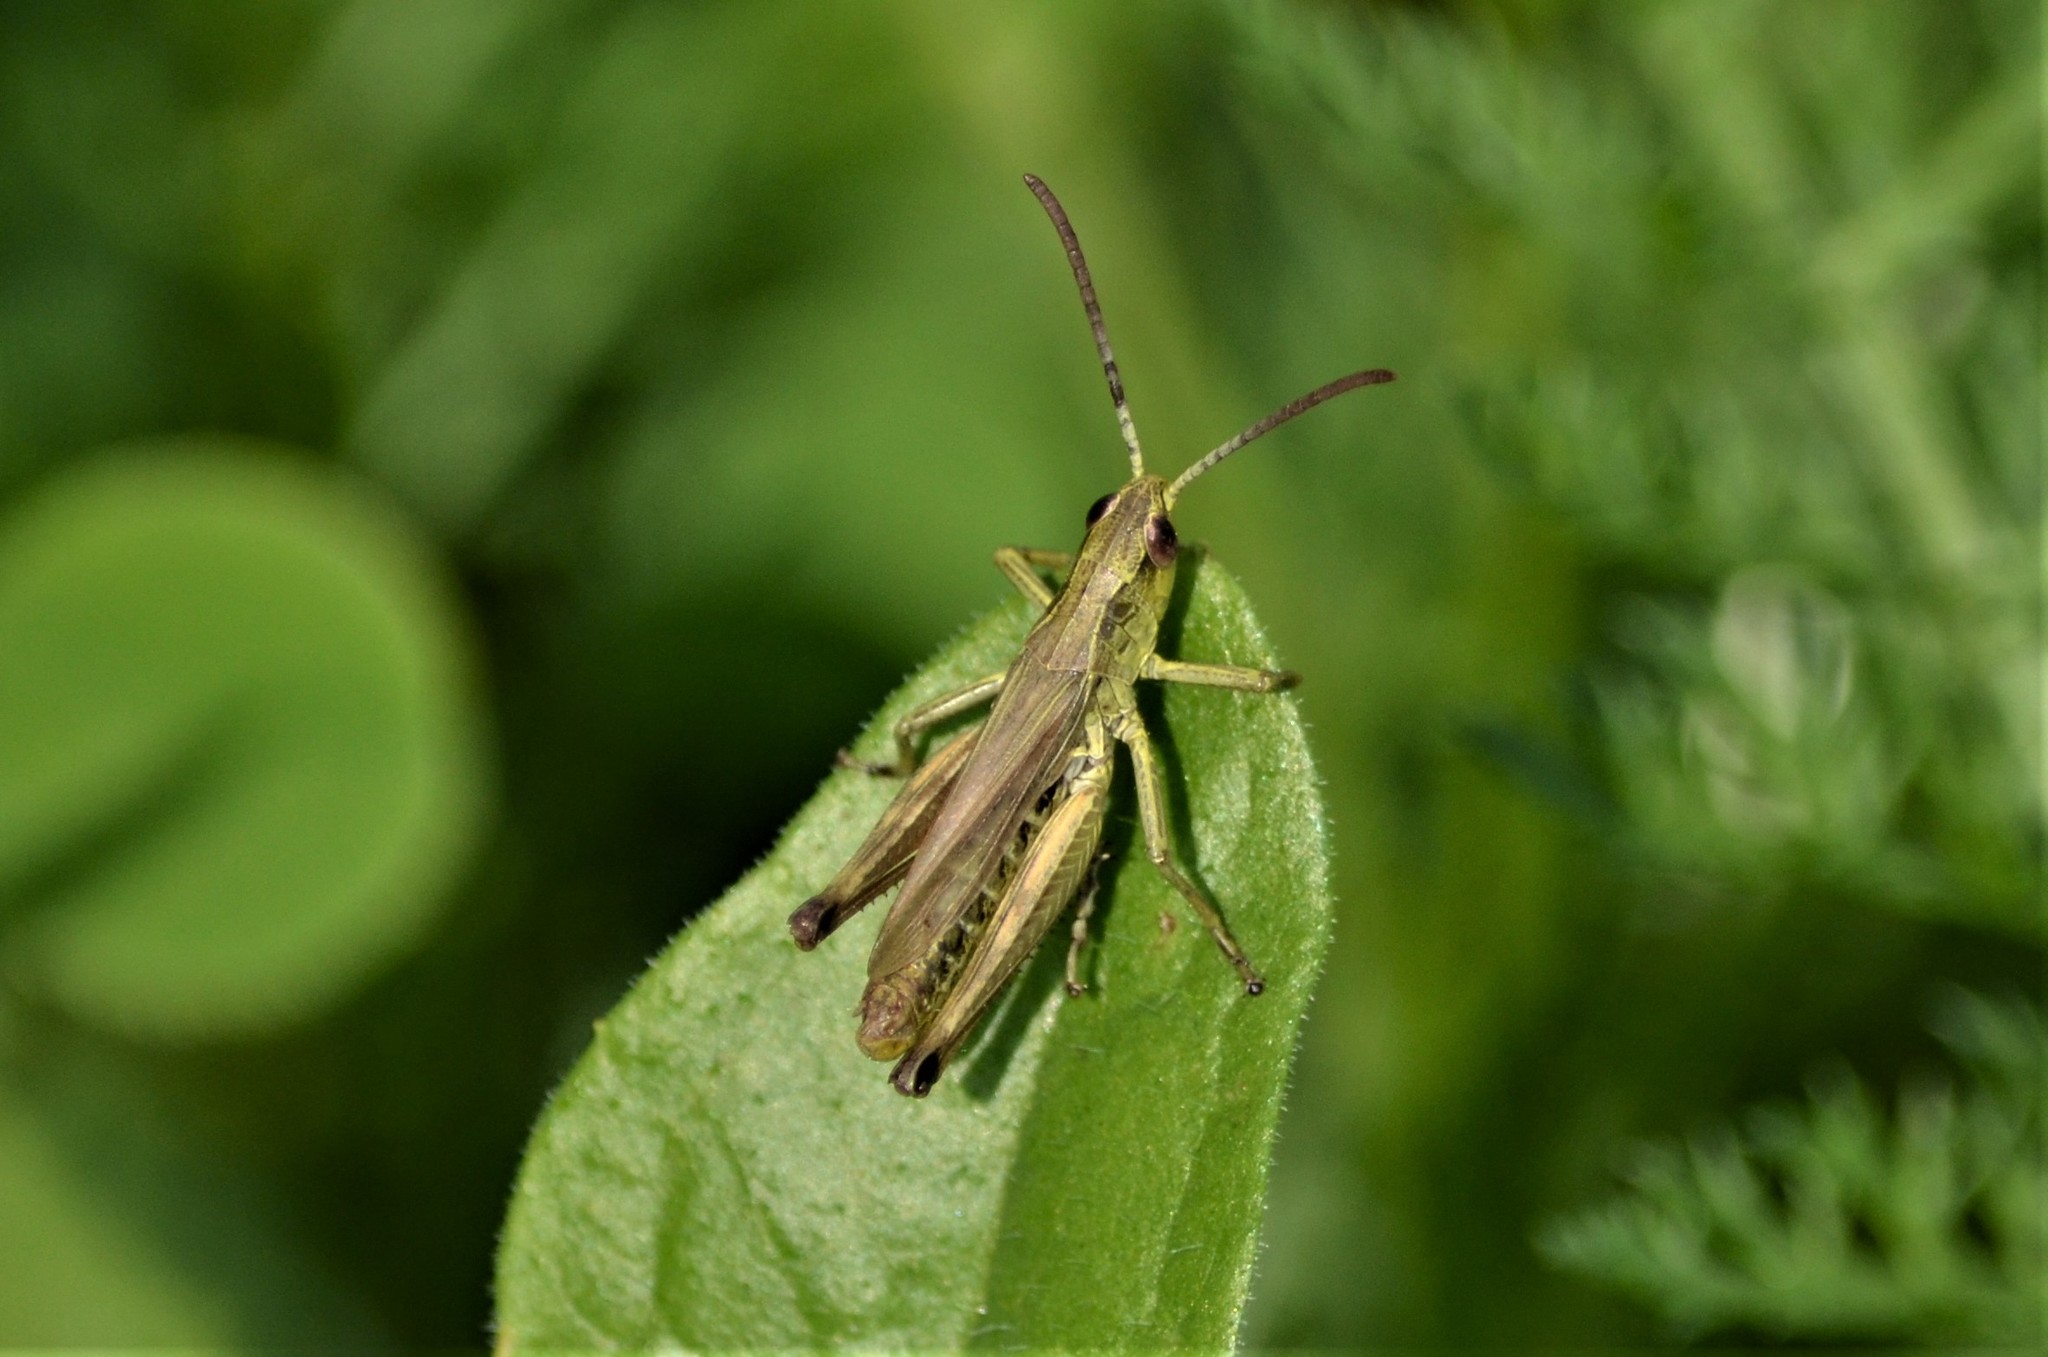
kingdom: Animalia
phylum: Arthropoda
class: Insecta
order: Orthoptera
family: Acrididae
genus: Pseudochorthippus
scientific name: Pseudochorthippus parallelus
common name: Meadow grasshopper
